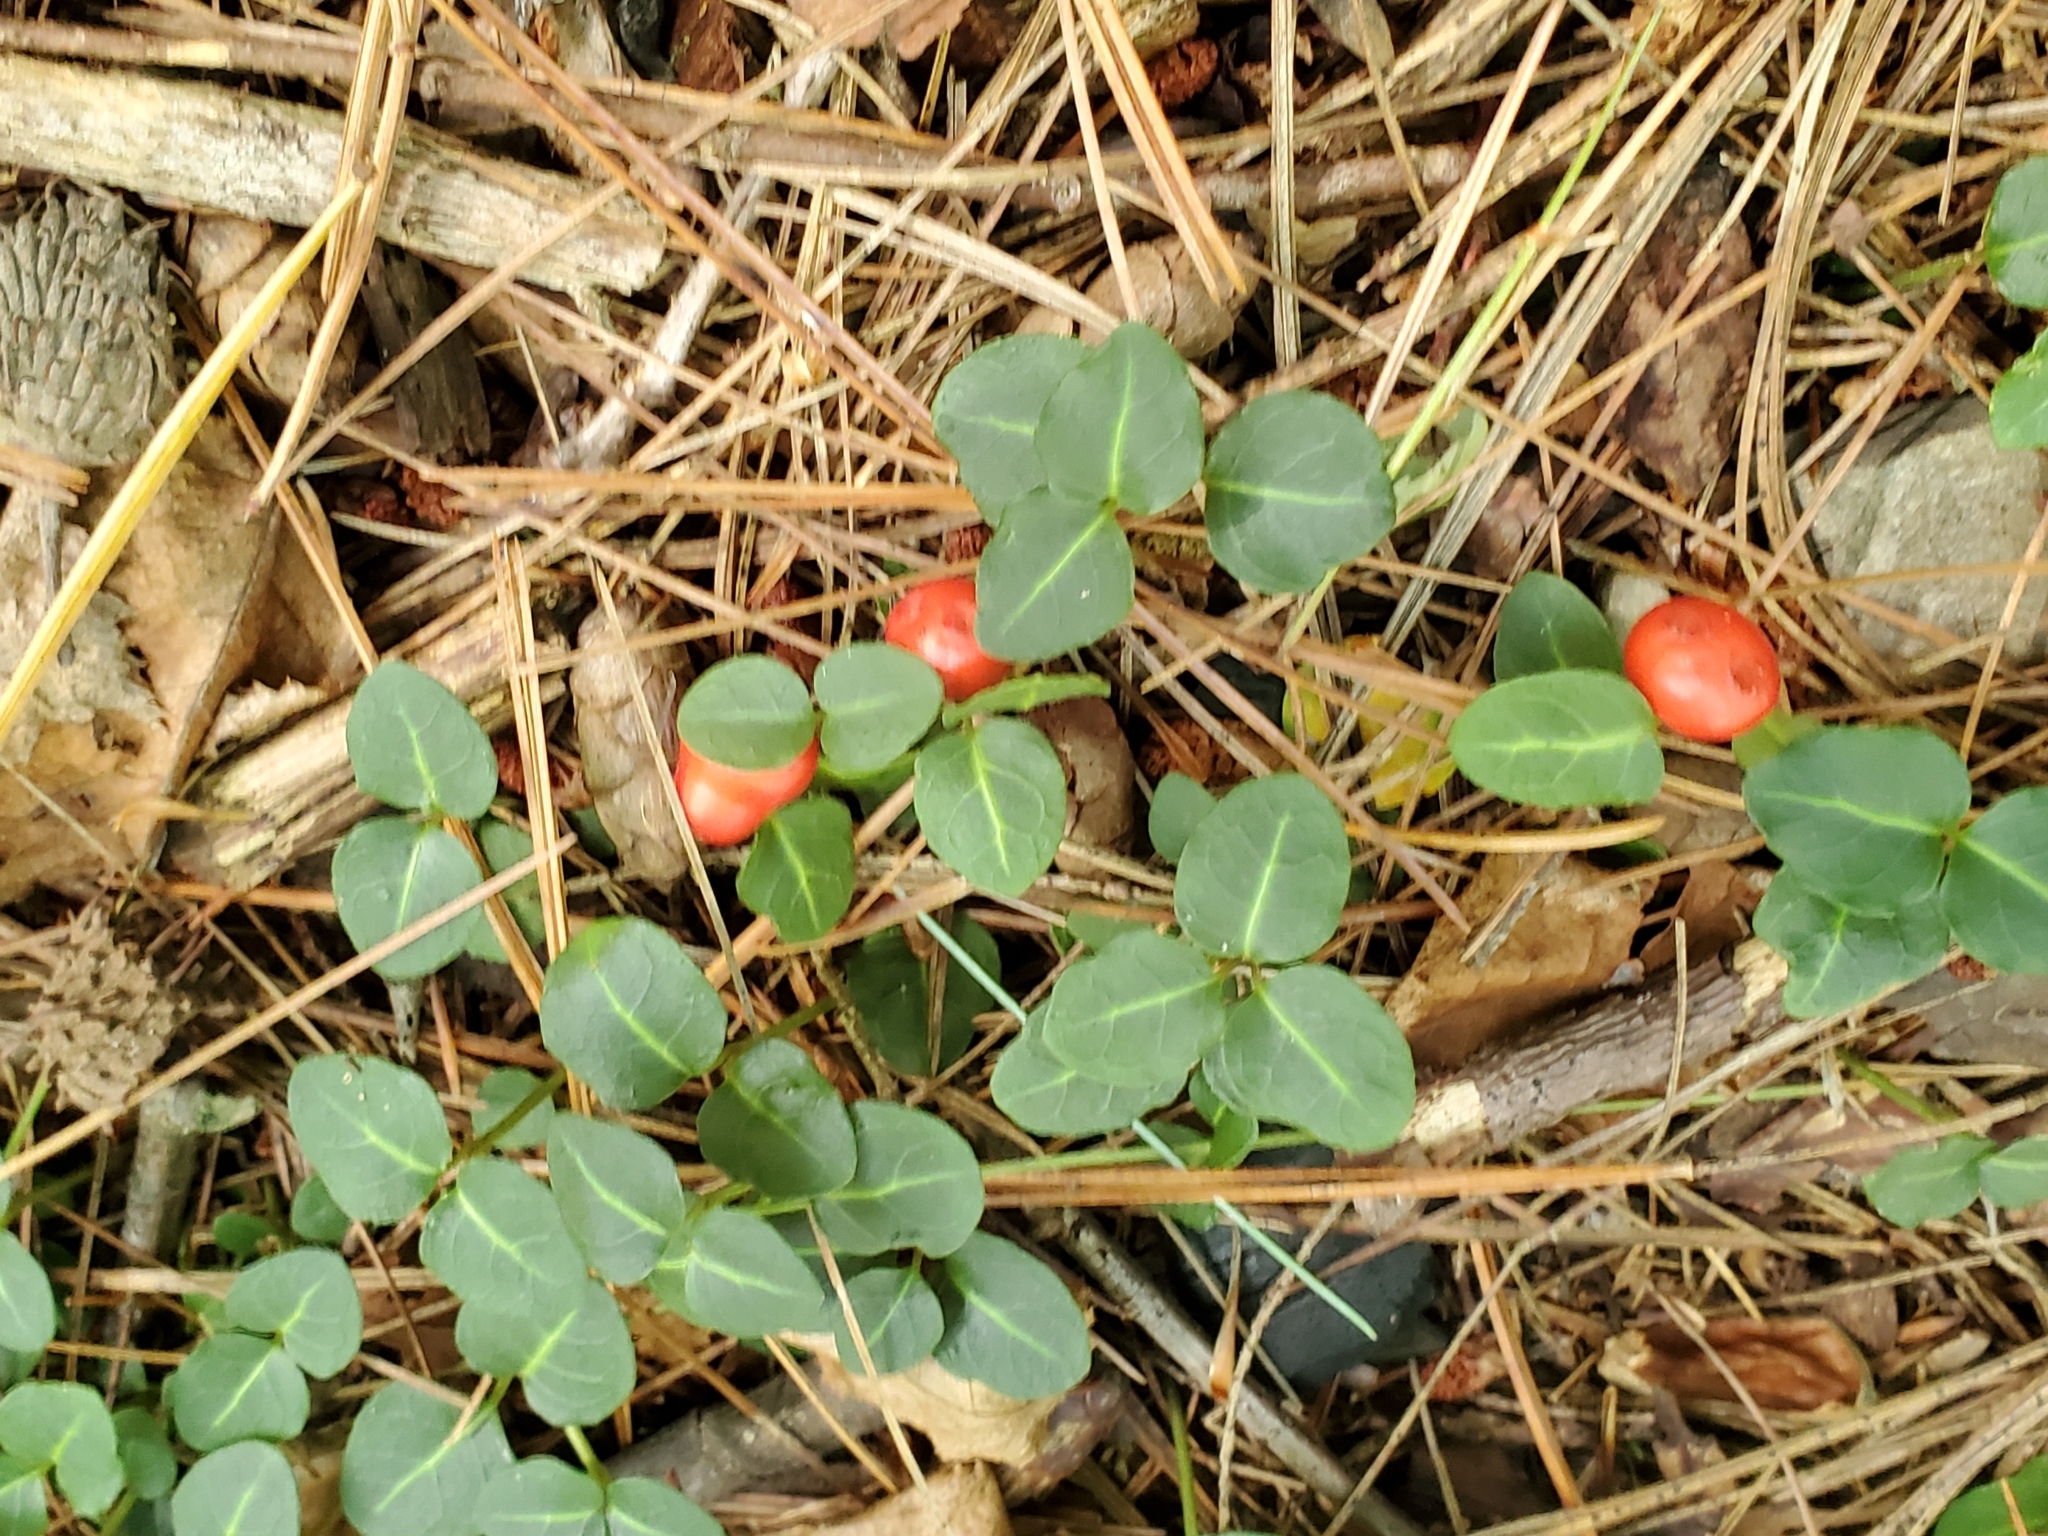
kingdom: Plantae
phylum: Tracheophyta
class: Magnoliopsida
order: Gentianales
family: Rubiaceae
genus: Mitchella
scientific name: Mitchella repens
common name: Partridge-berry
